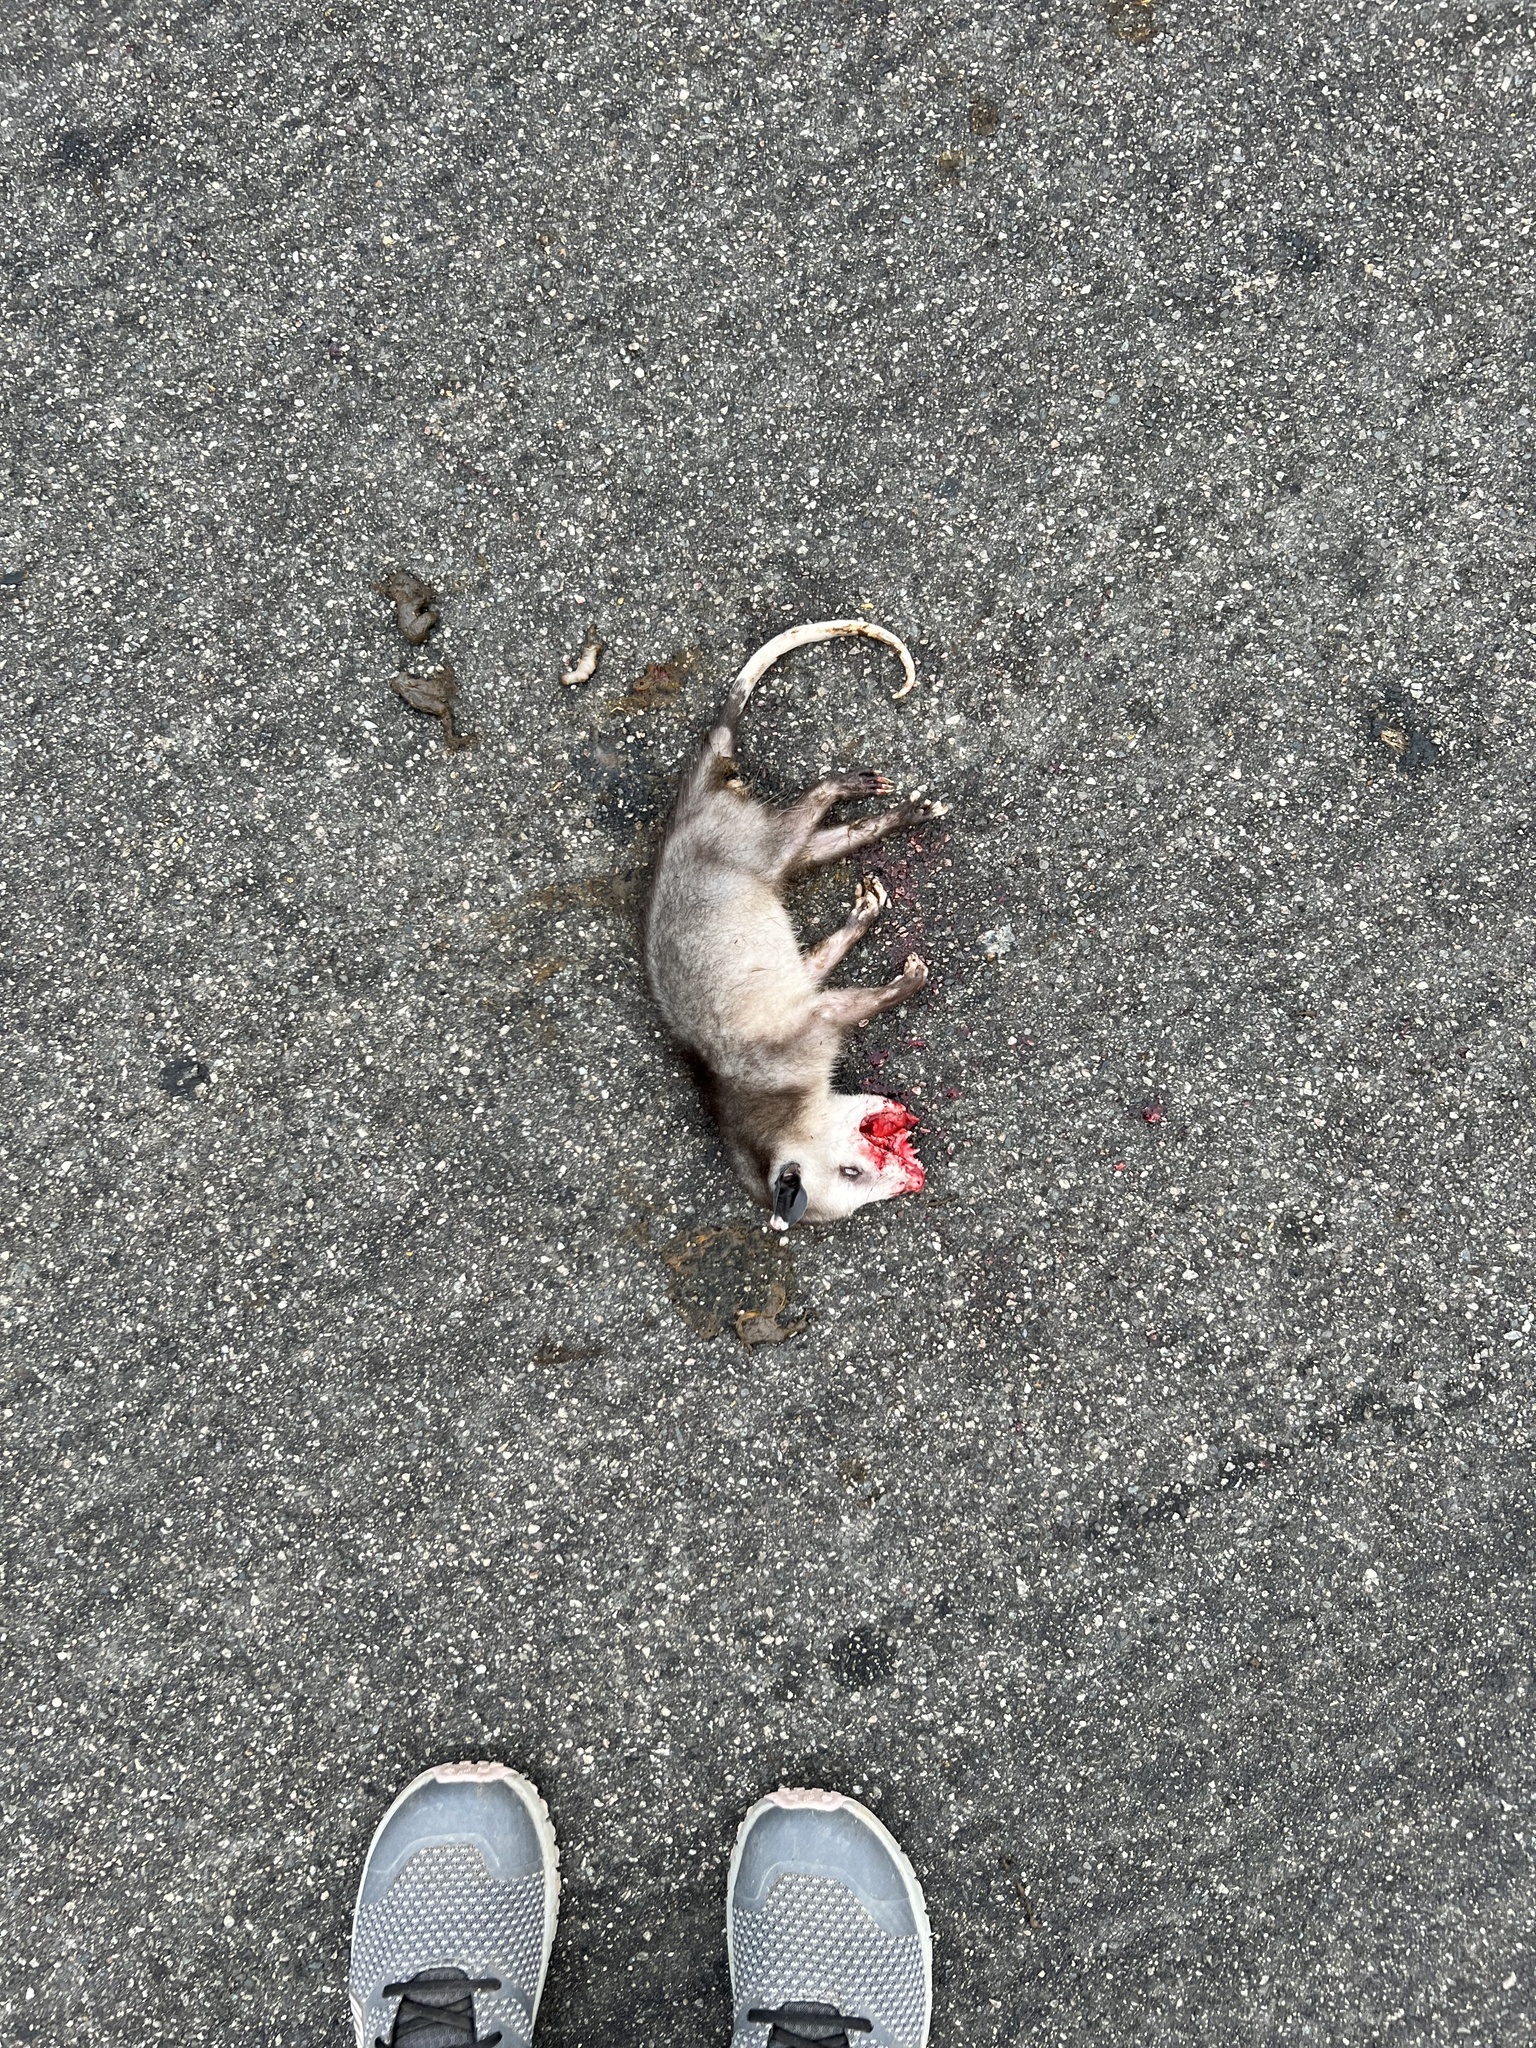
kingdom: Animalia
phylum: Chordata
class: Mammalia
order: Didelphimorphia
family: Didelphidae
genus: Didelphis
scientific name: Didelphis virginiana
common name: Virginia opossum
